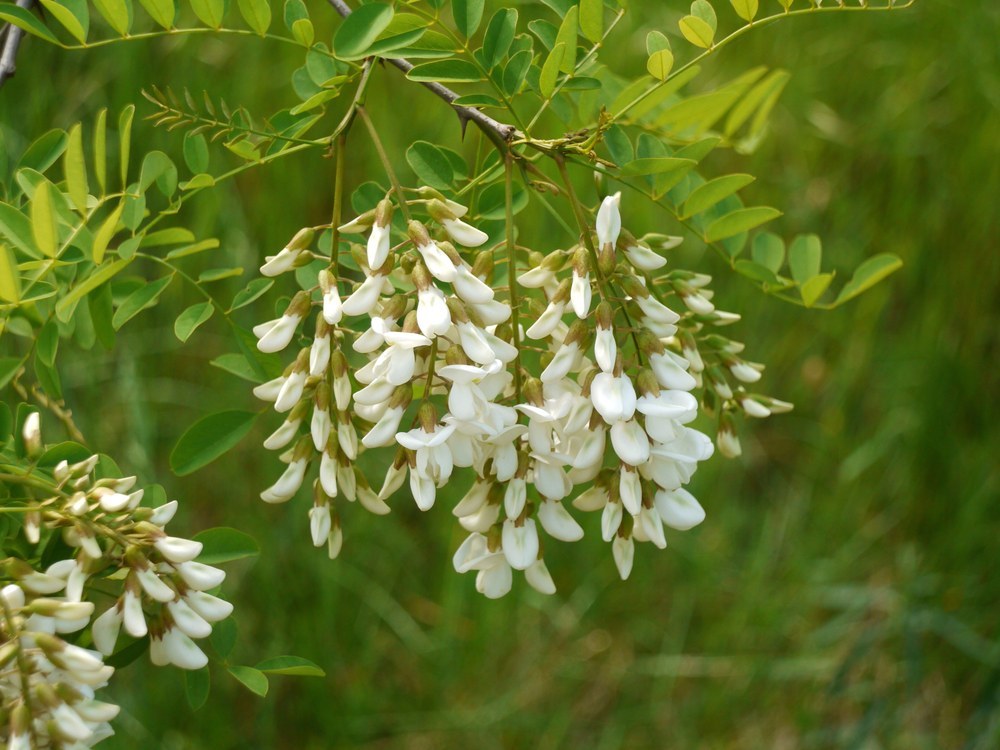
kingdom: Plantae
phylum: Tracheophyta
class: Magnoliopsida
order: Fabales
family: Fabaceae
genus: Robinia
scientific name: Robinia pseudoacacia
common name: Black locust
